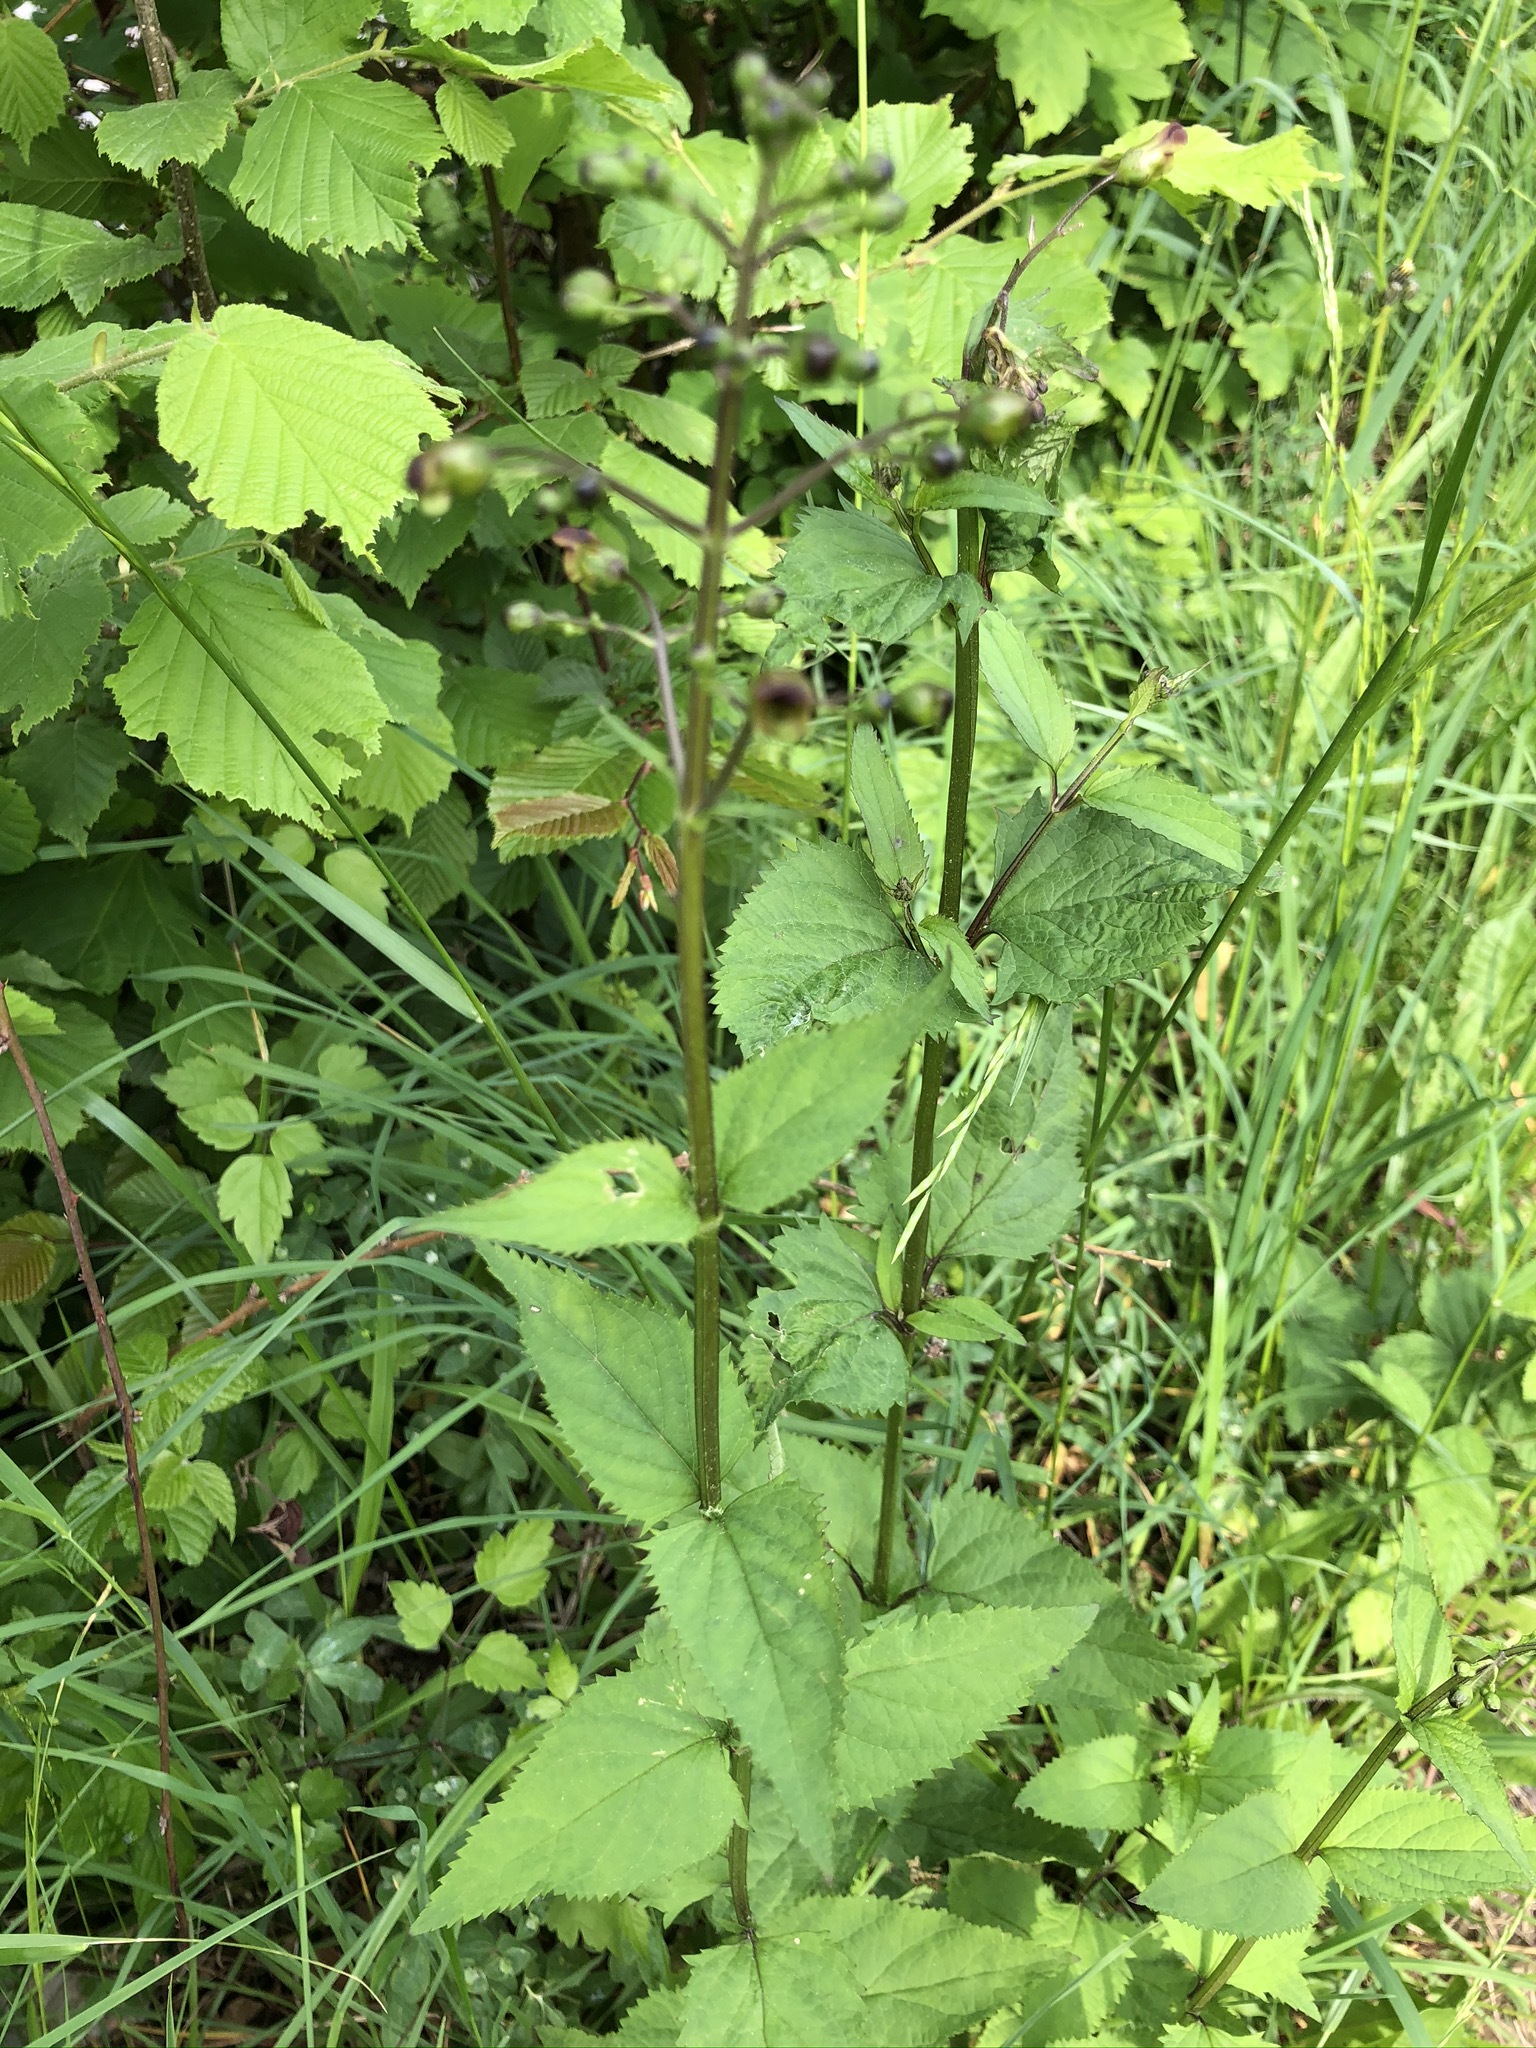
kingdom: Plantae
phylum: Tracheophyta
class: Magnoliopsida
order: Lamiales
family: Scrophulariaceae
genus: Scrophularia
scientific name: Scrophularia nodosa
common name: Common figwort
